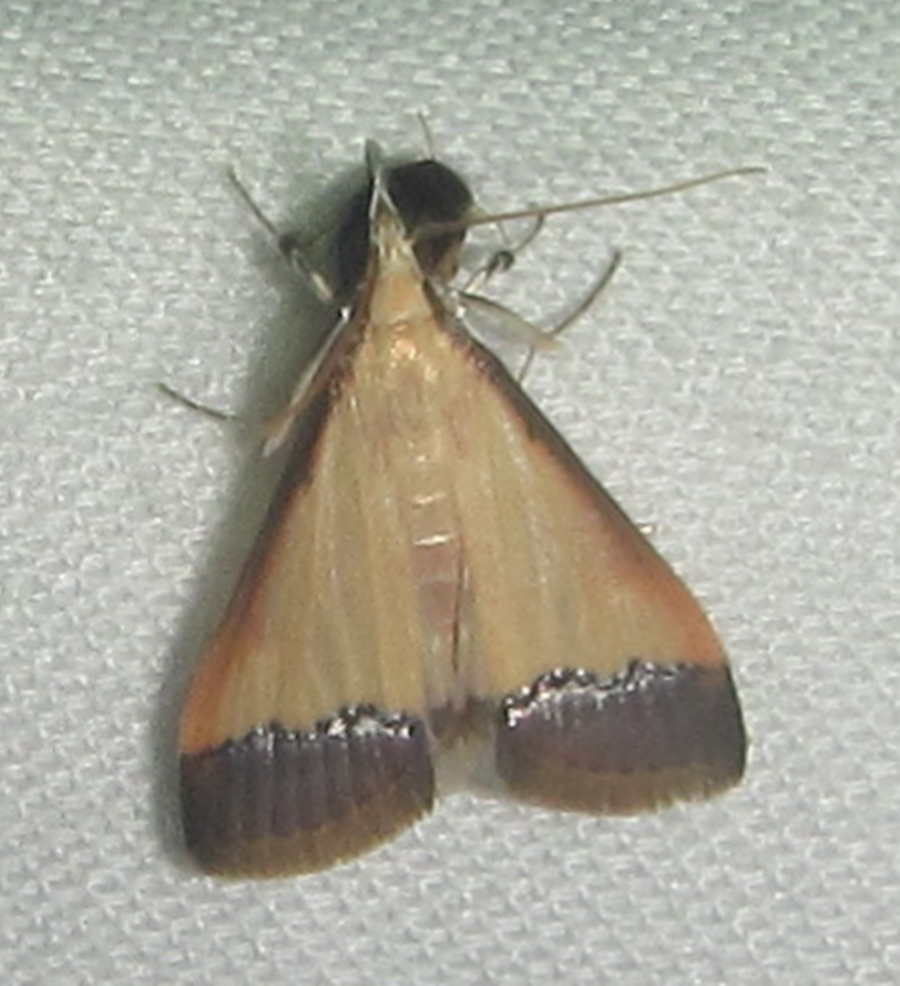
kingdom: Animalia
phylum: Arthropoda
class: Insecta
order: Lepidoptera
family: Crambidae
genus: Autocharis
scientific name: Autocharis fessalis
